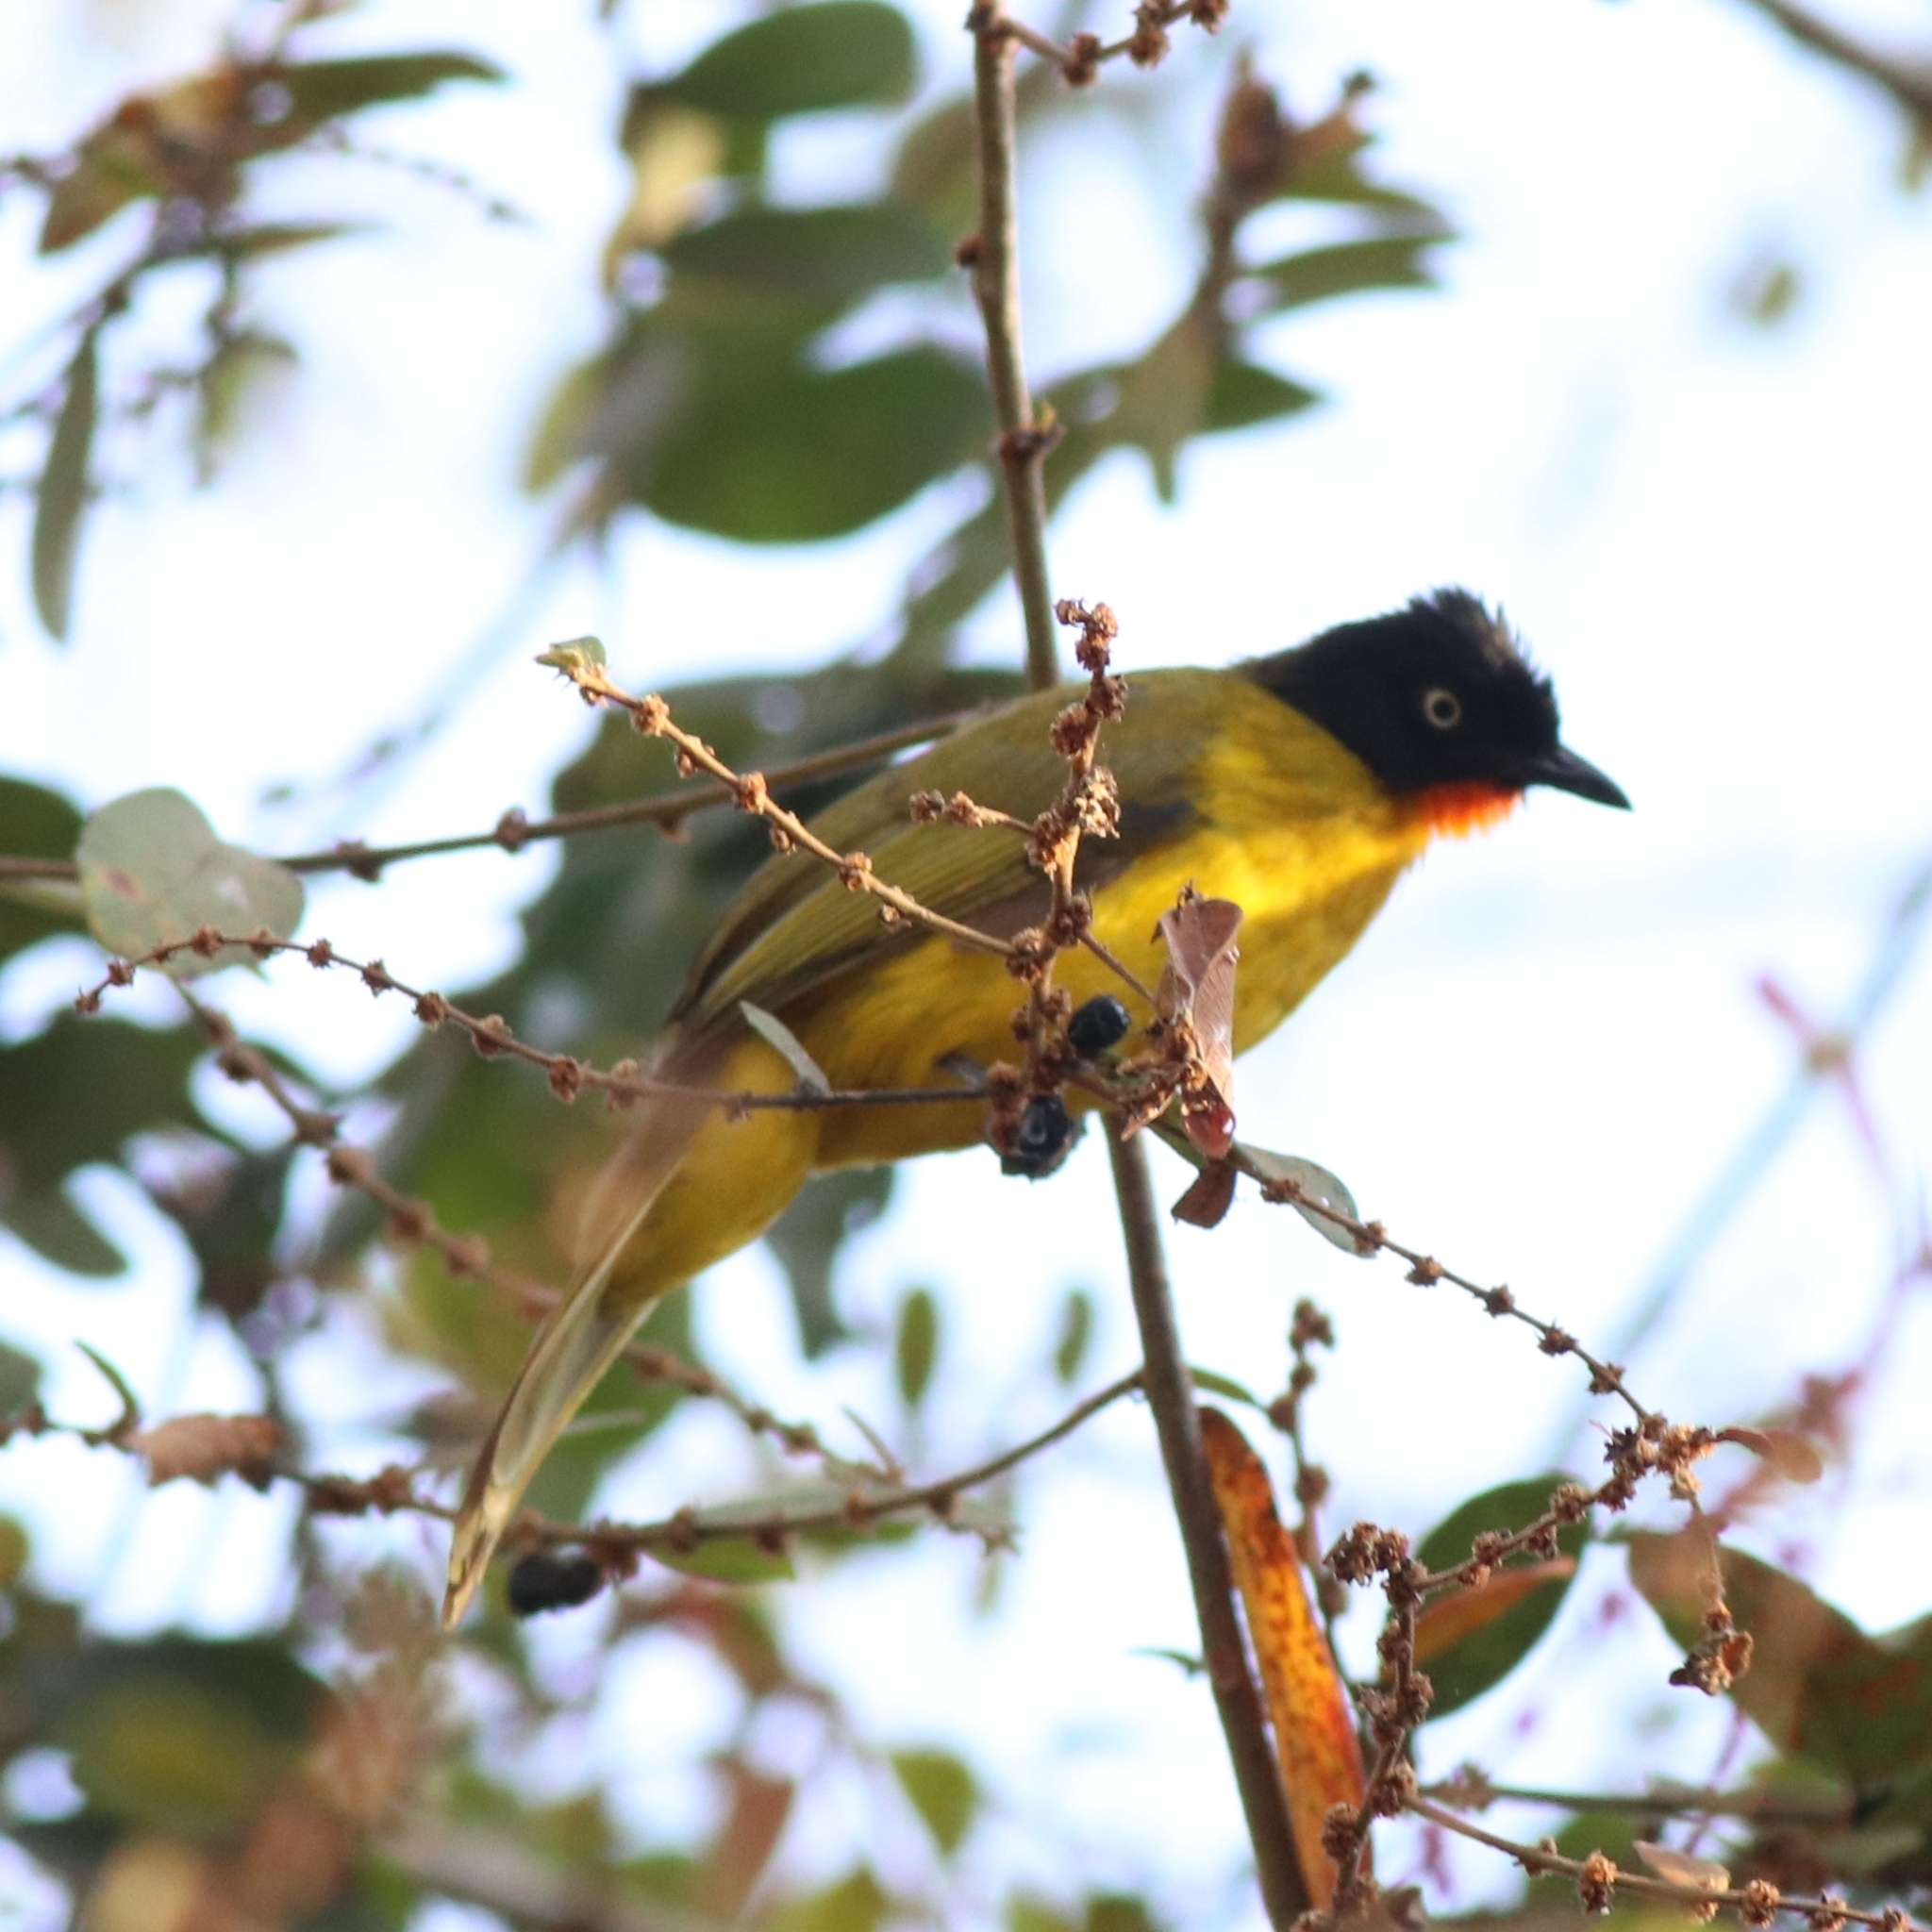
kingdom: Animalia
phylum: Chordata
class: Aves
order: Passeriformes
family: Pycnonotidae
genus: Pycnonotus
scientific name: Pycnonotus gularis
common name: Flame-throated bulbul
